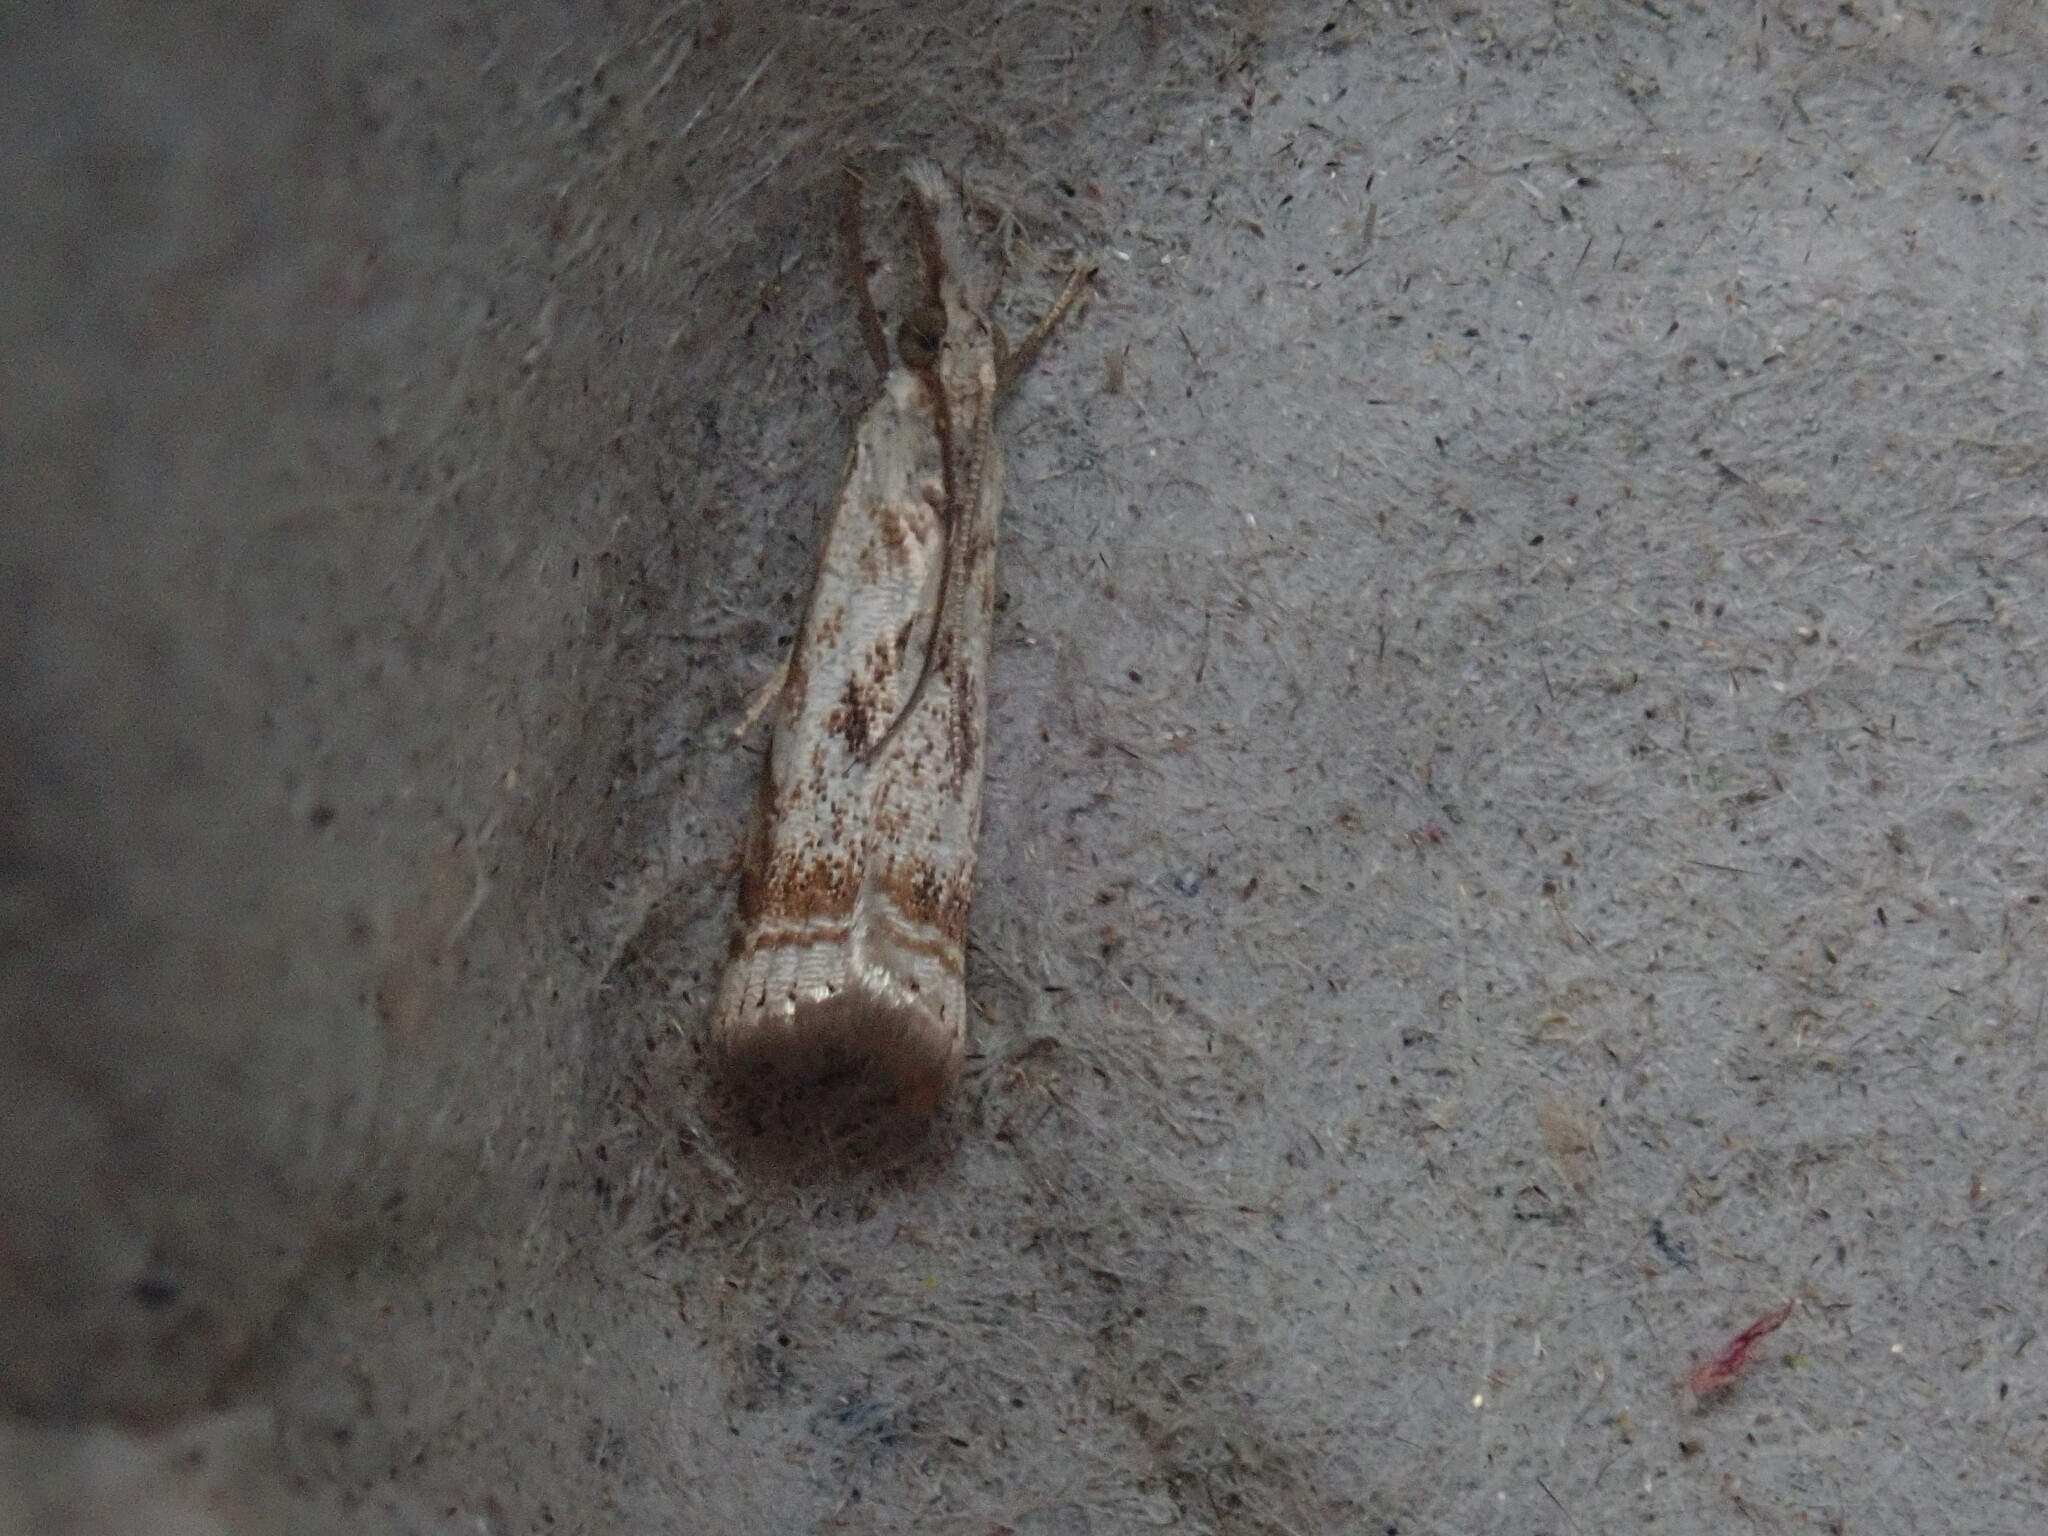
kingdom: Animalia
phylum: Arthropoda
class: Insecta
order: Lepidoptera
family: Crambidae
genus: Microcrambus
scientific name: Microcrambus elegans
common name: Elegant grass-veneer
